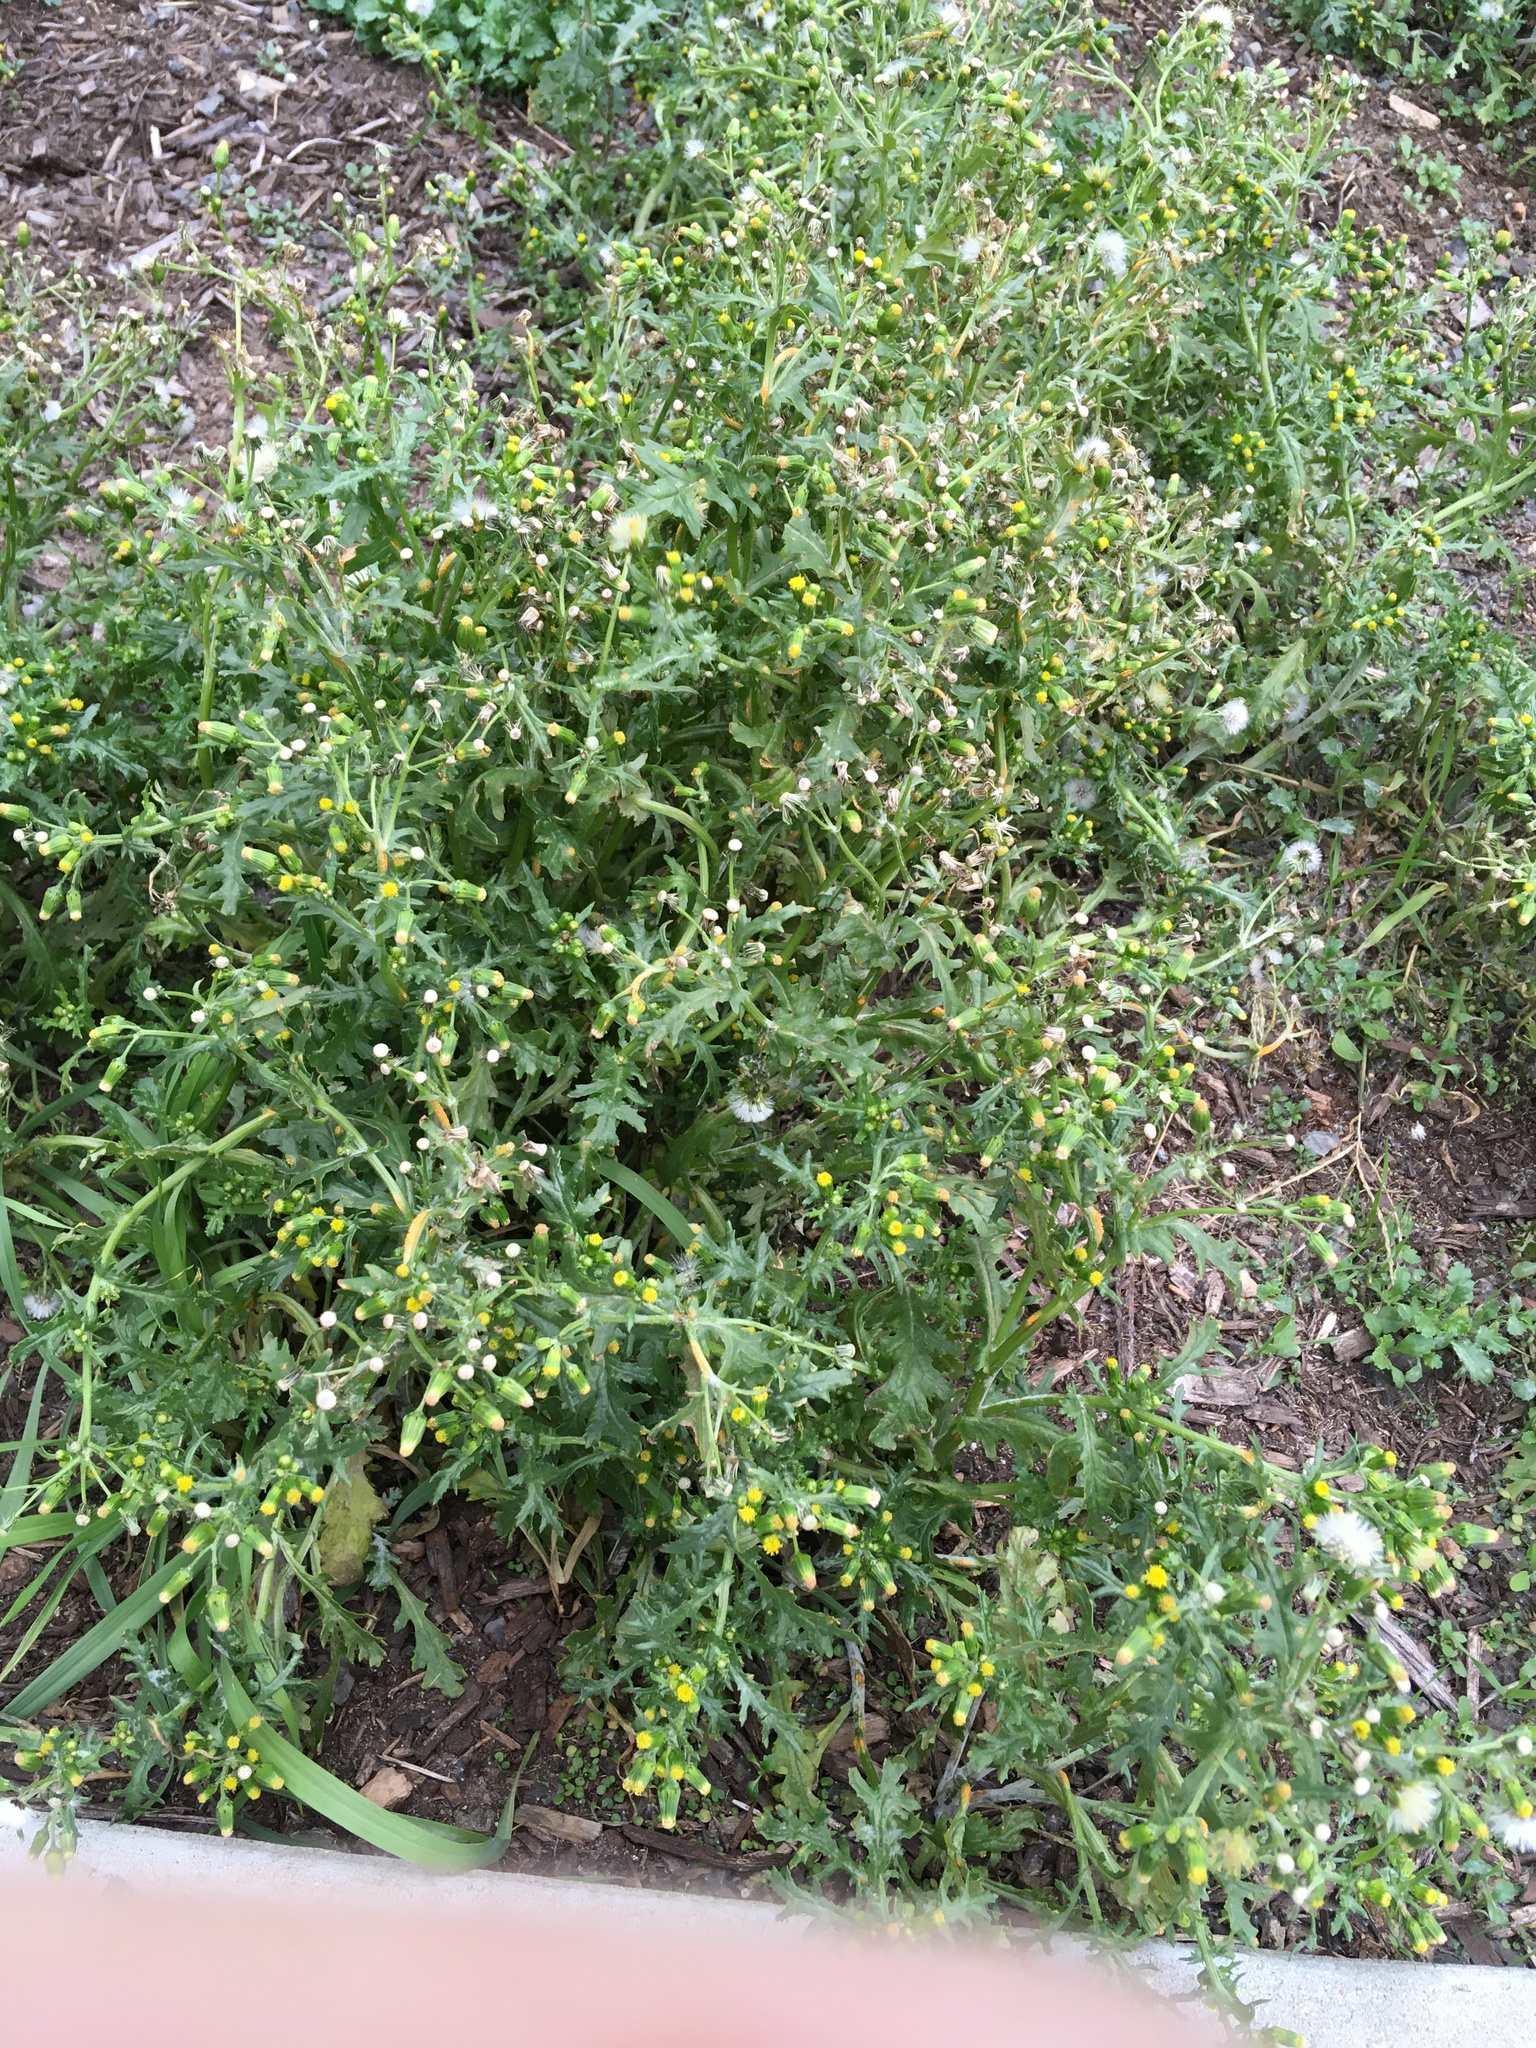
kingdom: Plantae
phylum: Tracheophyta
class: Magnoliopsida
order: Asterales
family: Asteraceae
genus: Senecio
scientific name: Senecio vulgaris
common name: Old-man-in-the-spring
